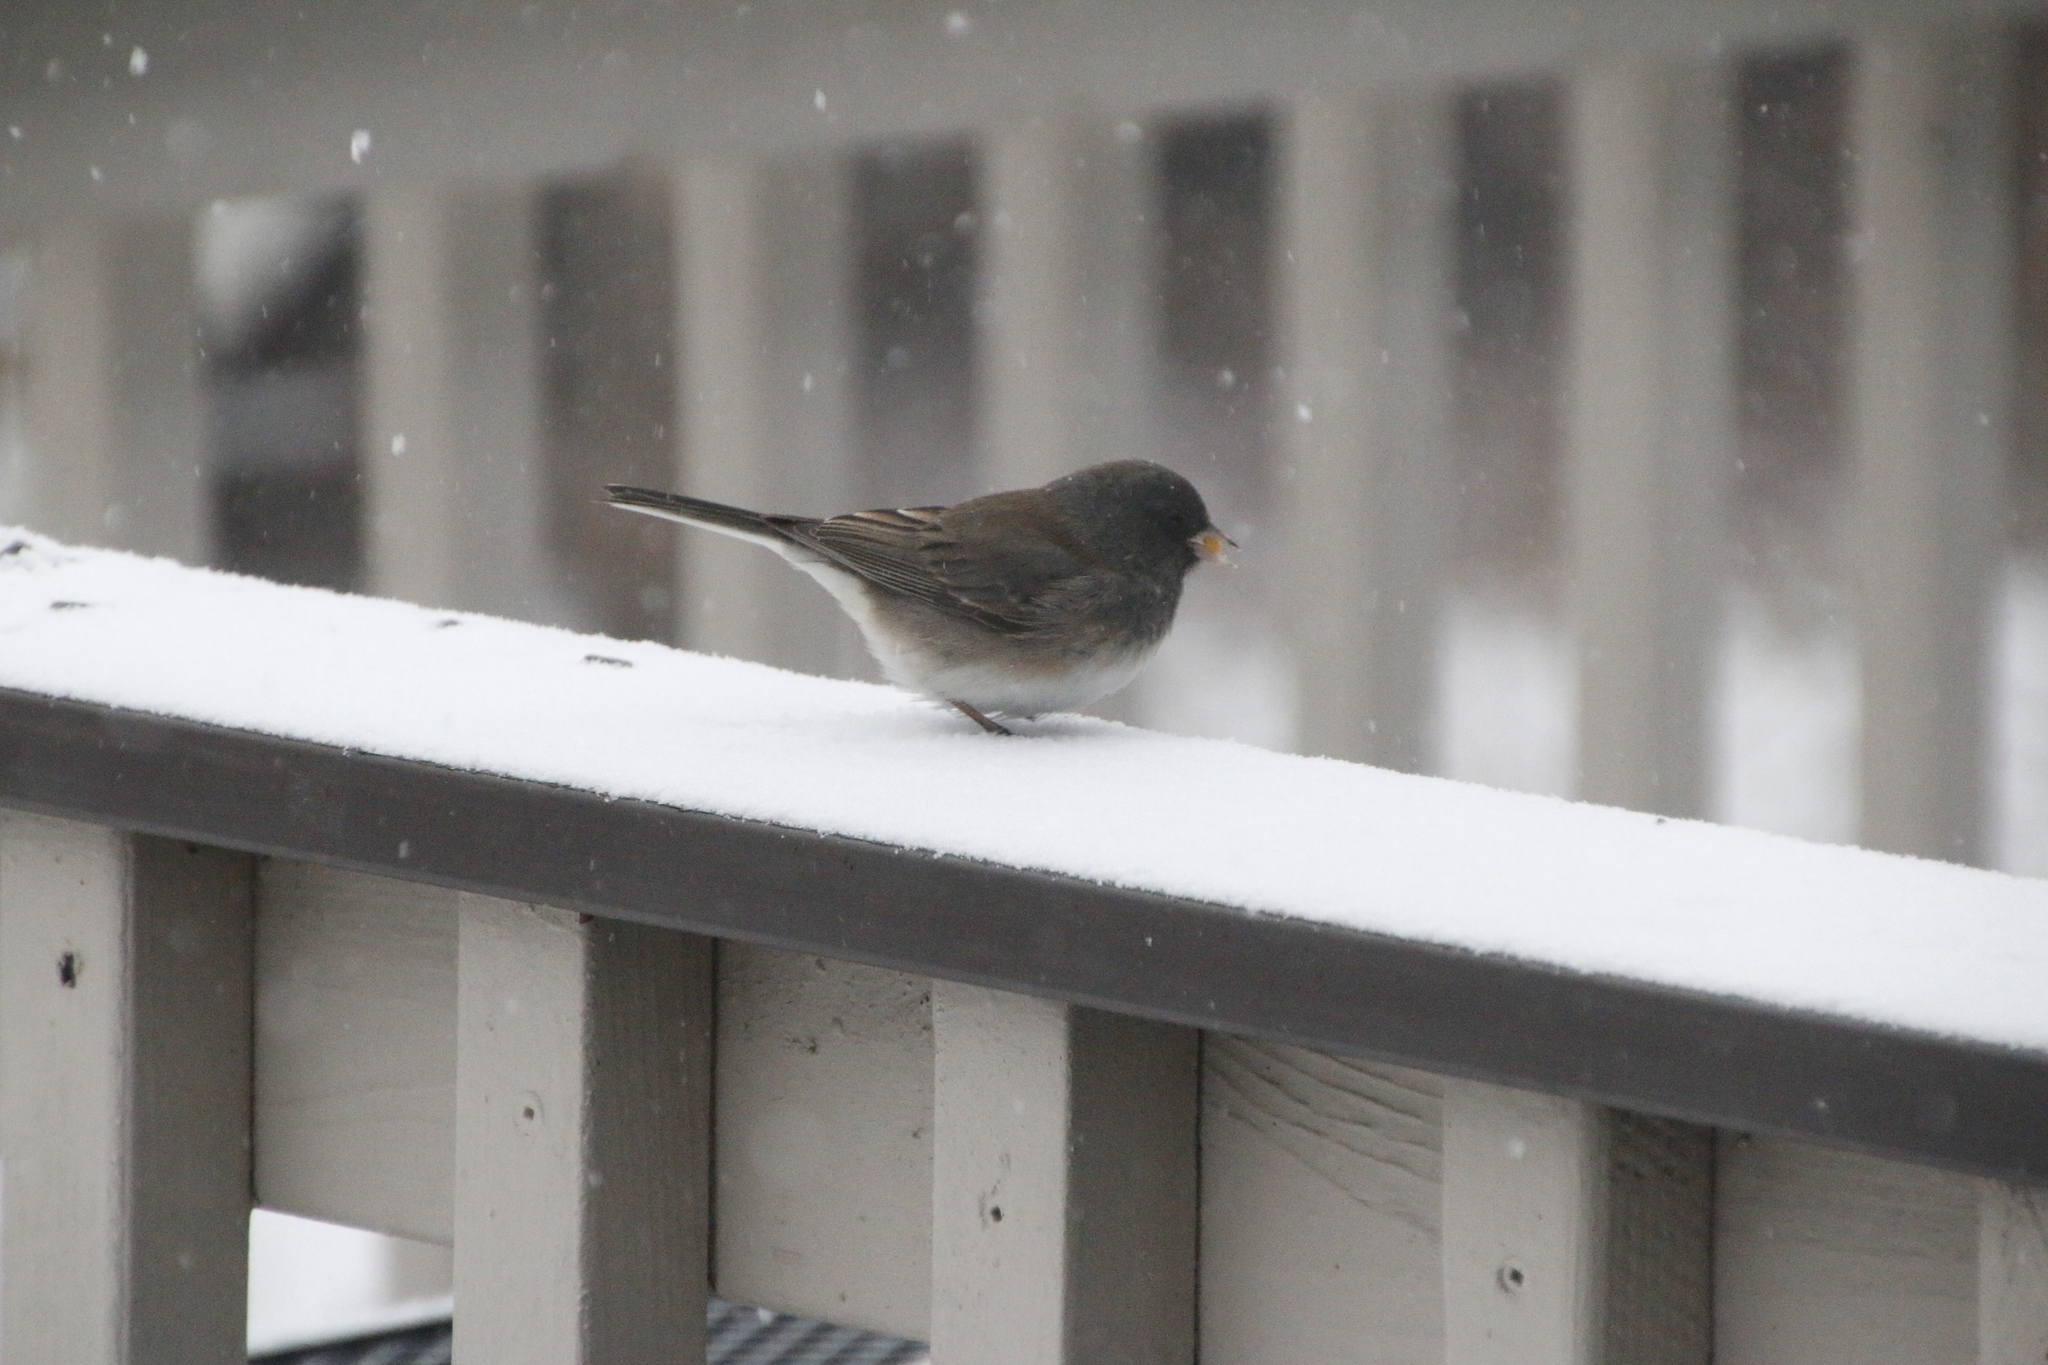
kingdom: Animalia
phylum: Chordata
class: Aves
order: Passeriformes
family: Passerellidae
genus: Junco
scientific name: Junco hyemalis
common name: Dark-eyed junco
